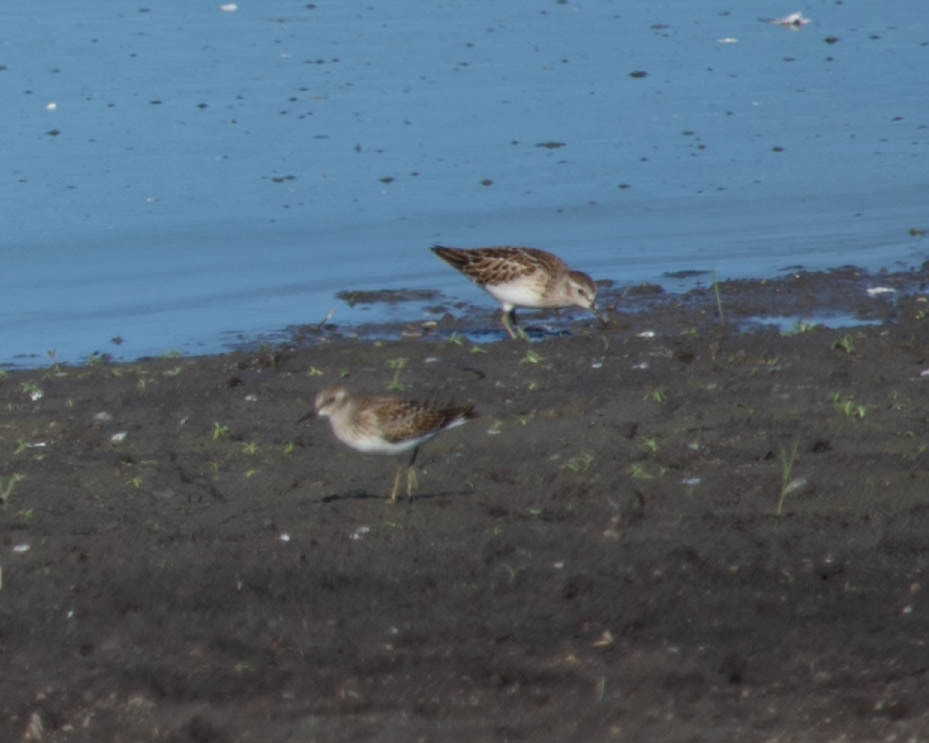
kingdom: Animalia
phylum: Chordata
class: Aves
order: Charadriiformes
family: Scolopacidae
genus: Calidris
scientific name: Calidris minutilla
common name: Least sandpiper
